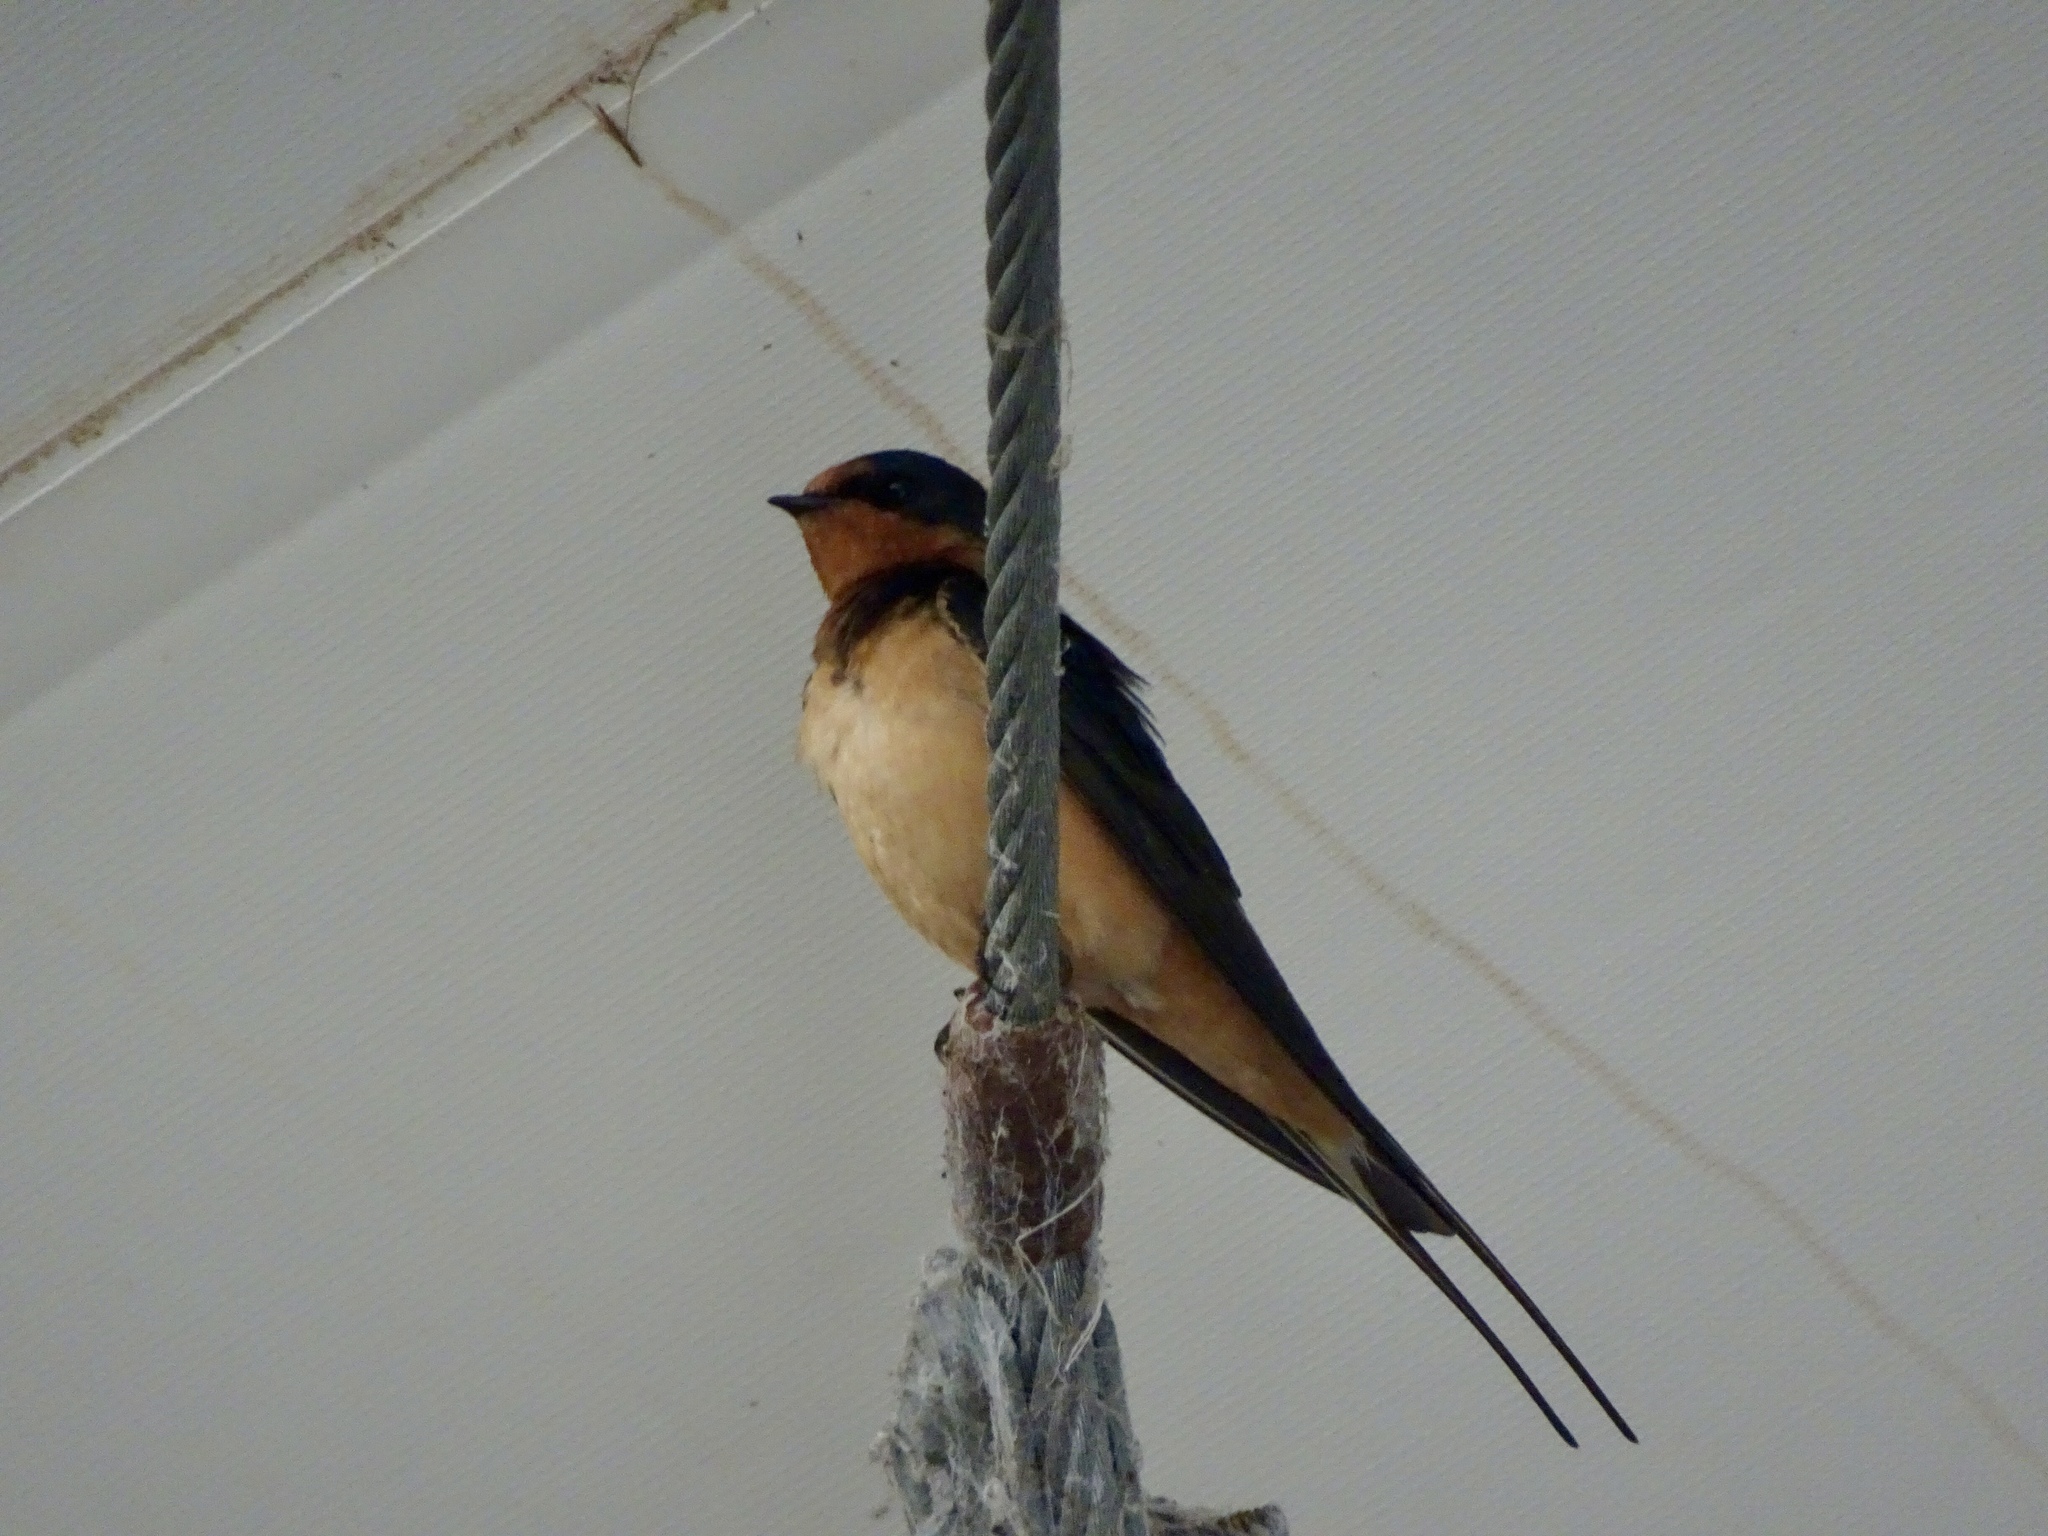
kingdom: Animalia
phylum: Chordata
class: Aves
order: Passeriformes
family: Hirundinidae
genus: Hirundo
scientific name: Hirundo rustica
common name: Barn swallow
